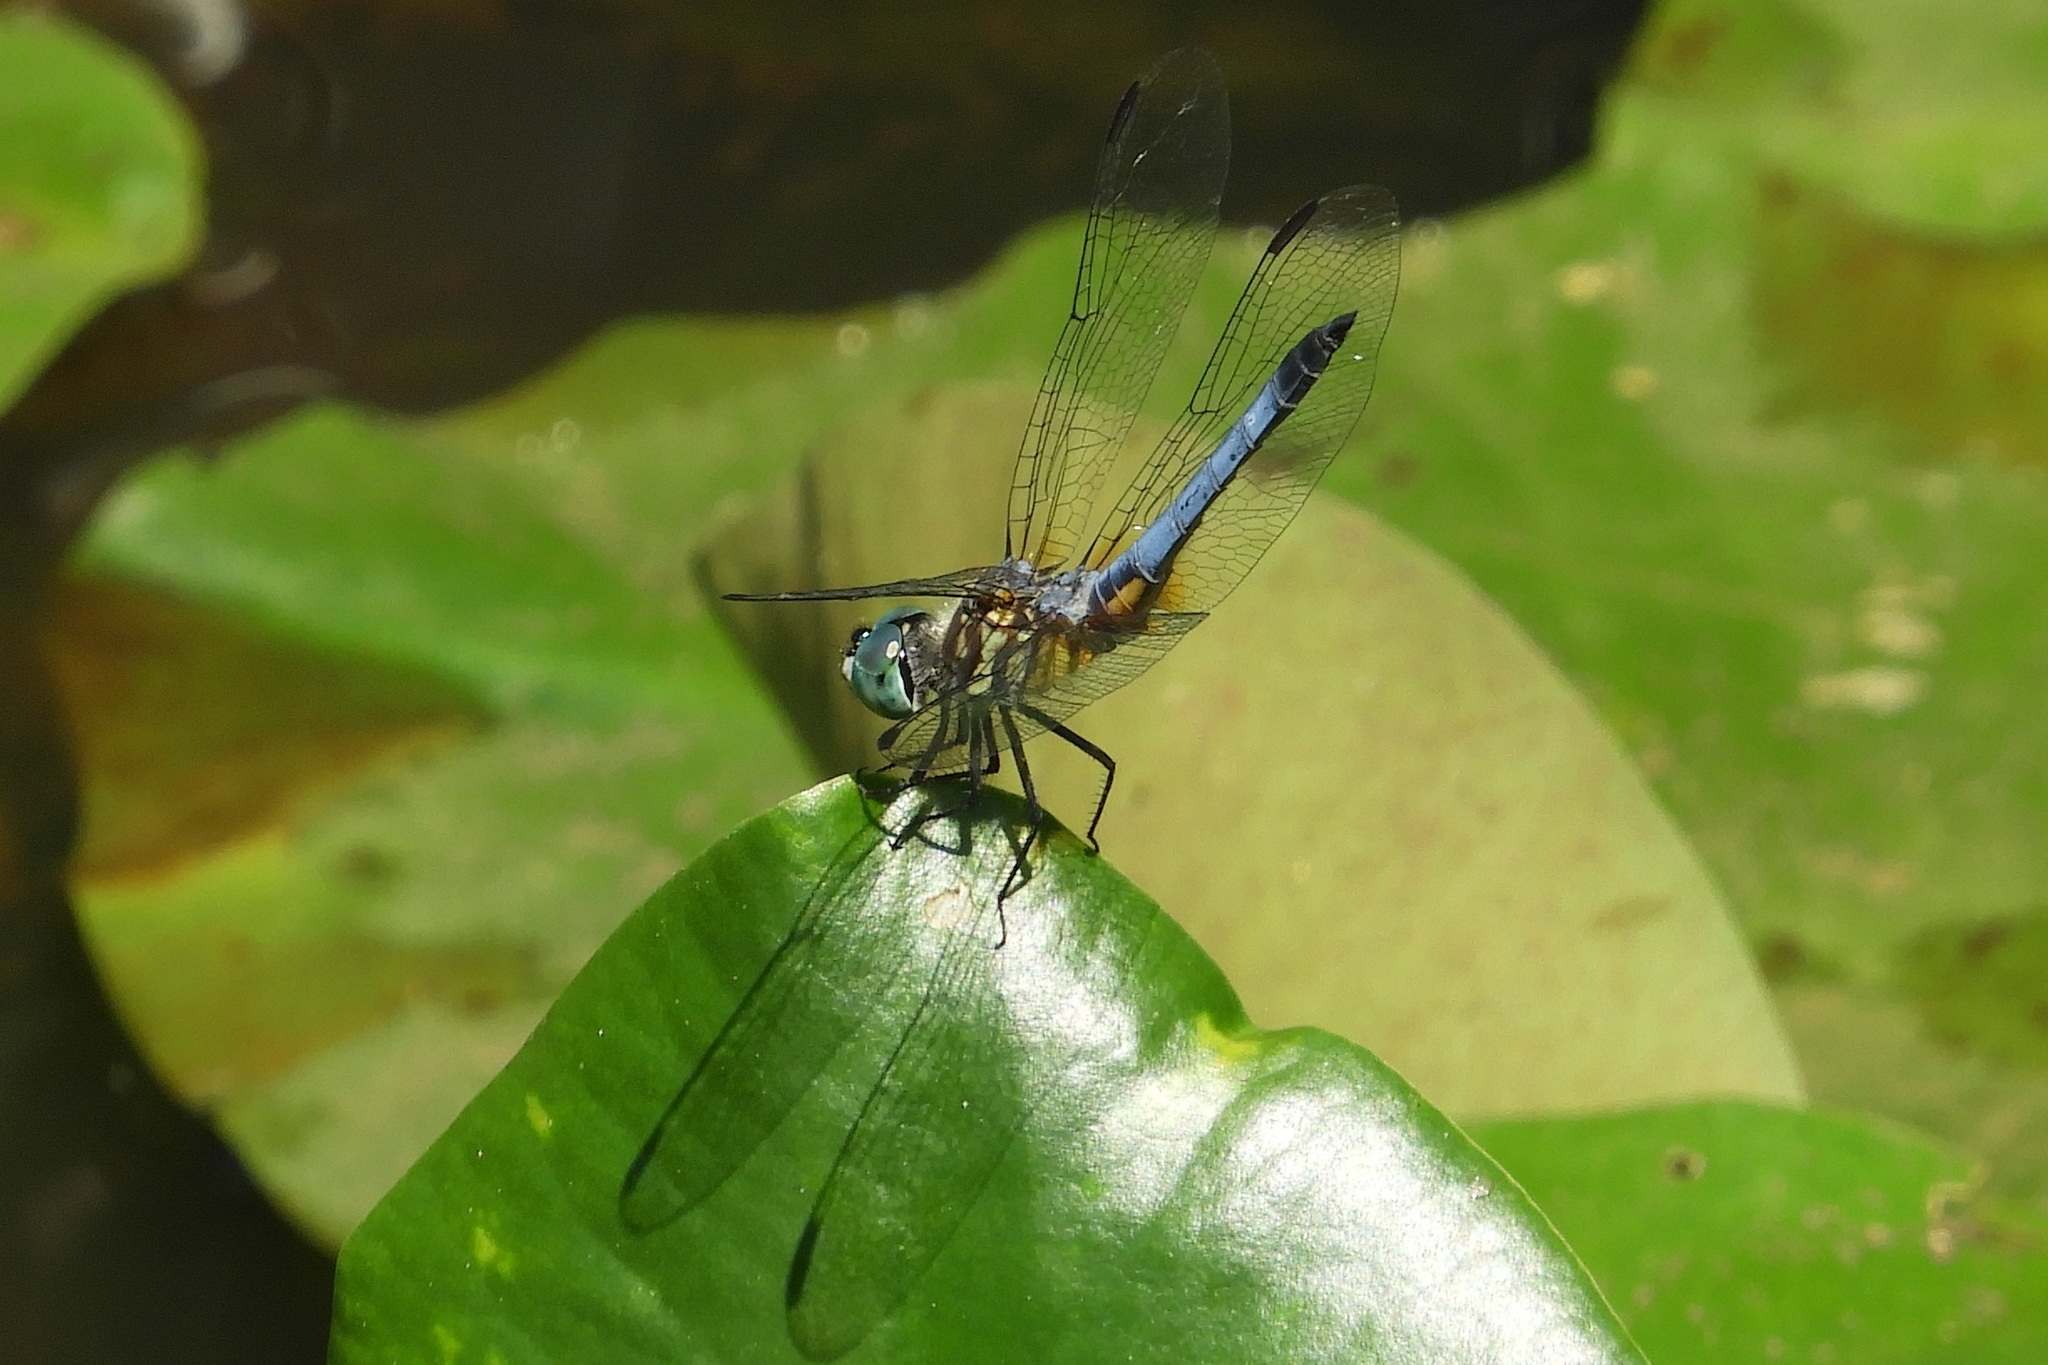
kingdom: Animalia
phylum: Arthropoda
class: Insecta
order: Odonata
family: Libellulidae
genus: Pachydiplax
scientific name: Pachydiplax longipennis
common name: Blue dasher
